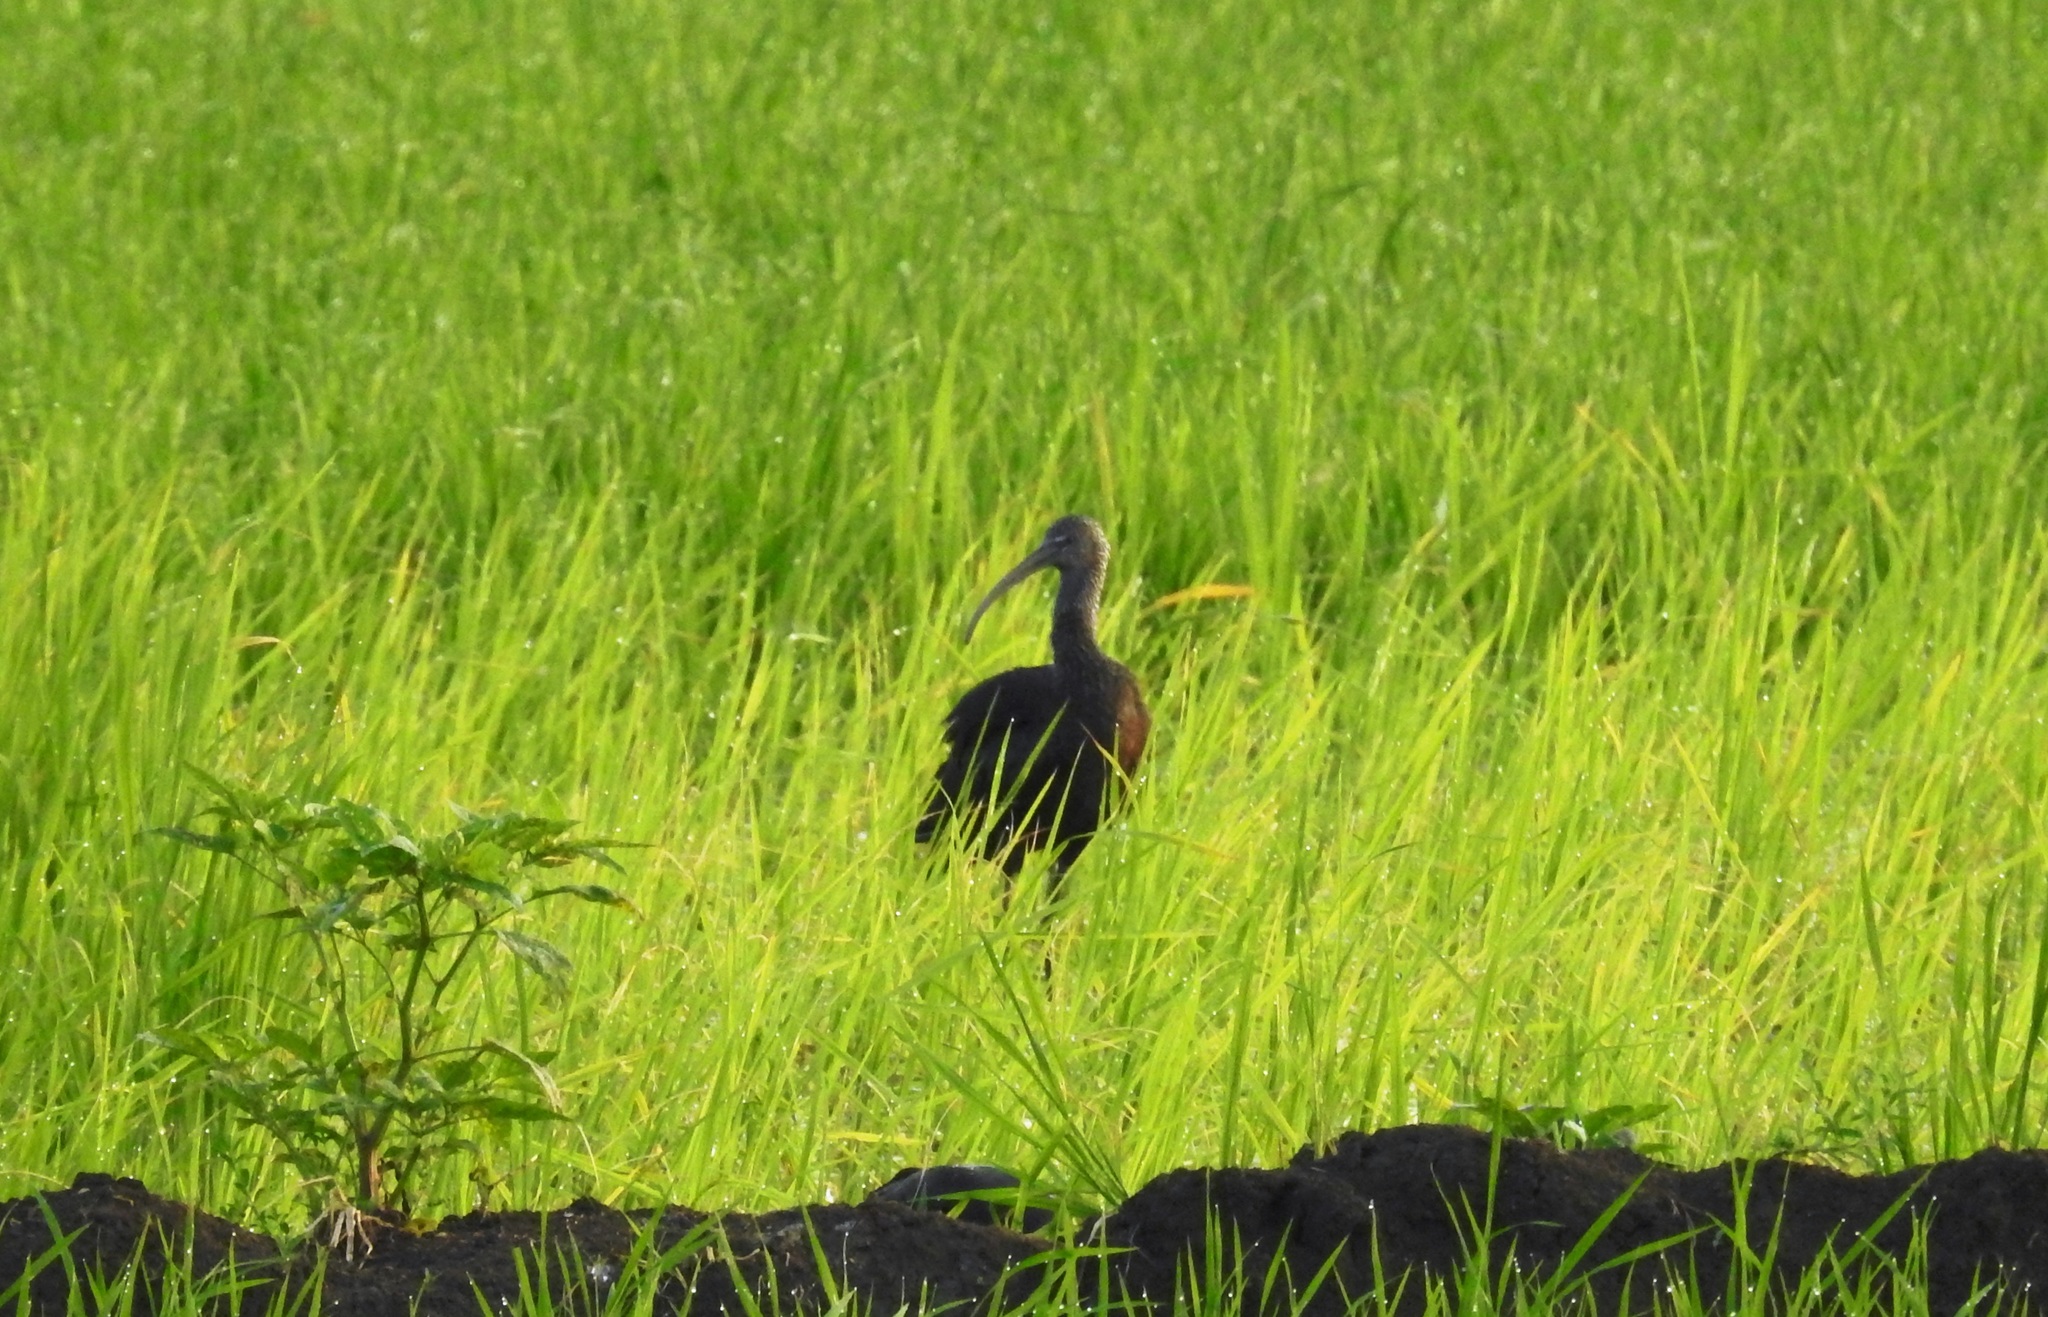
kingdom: Animalia
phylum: Chordata
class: Aves
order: Pelecaniformes
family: Threskiornithidae
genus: Plegadis
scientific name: Plegadis falcinellus
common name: Glossy ibis
